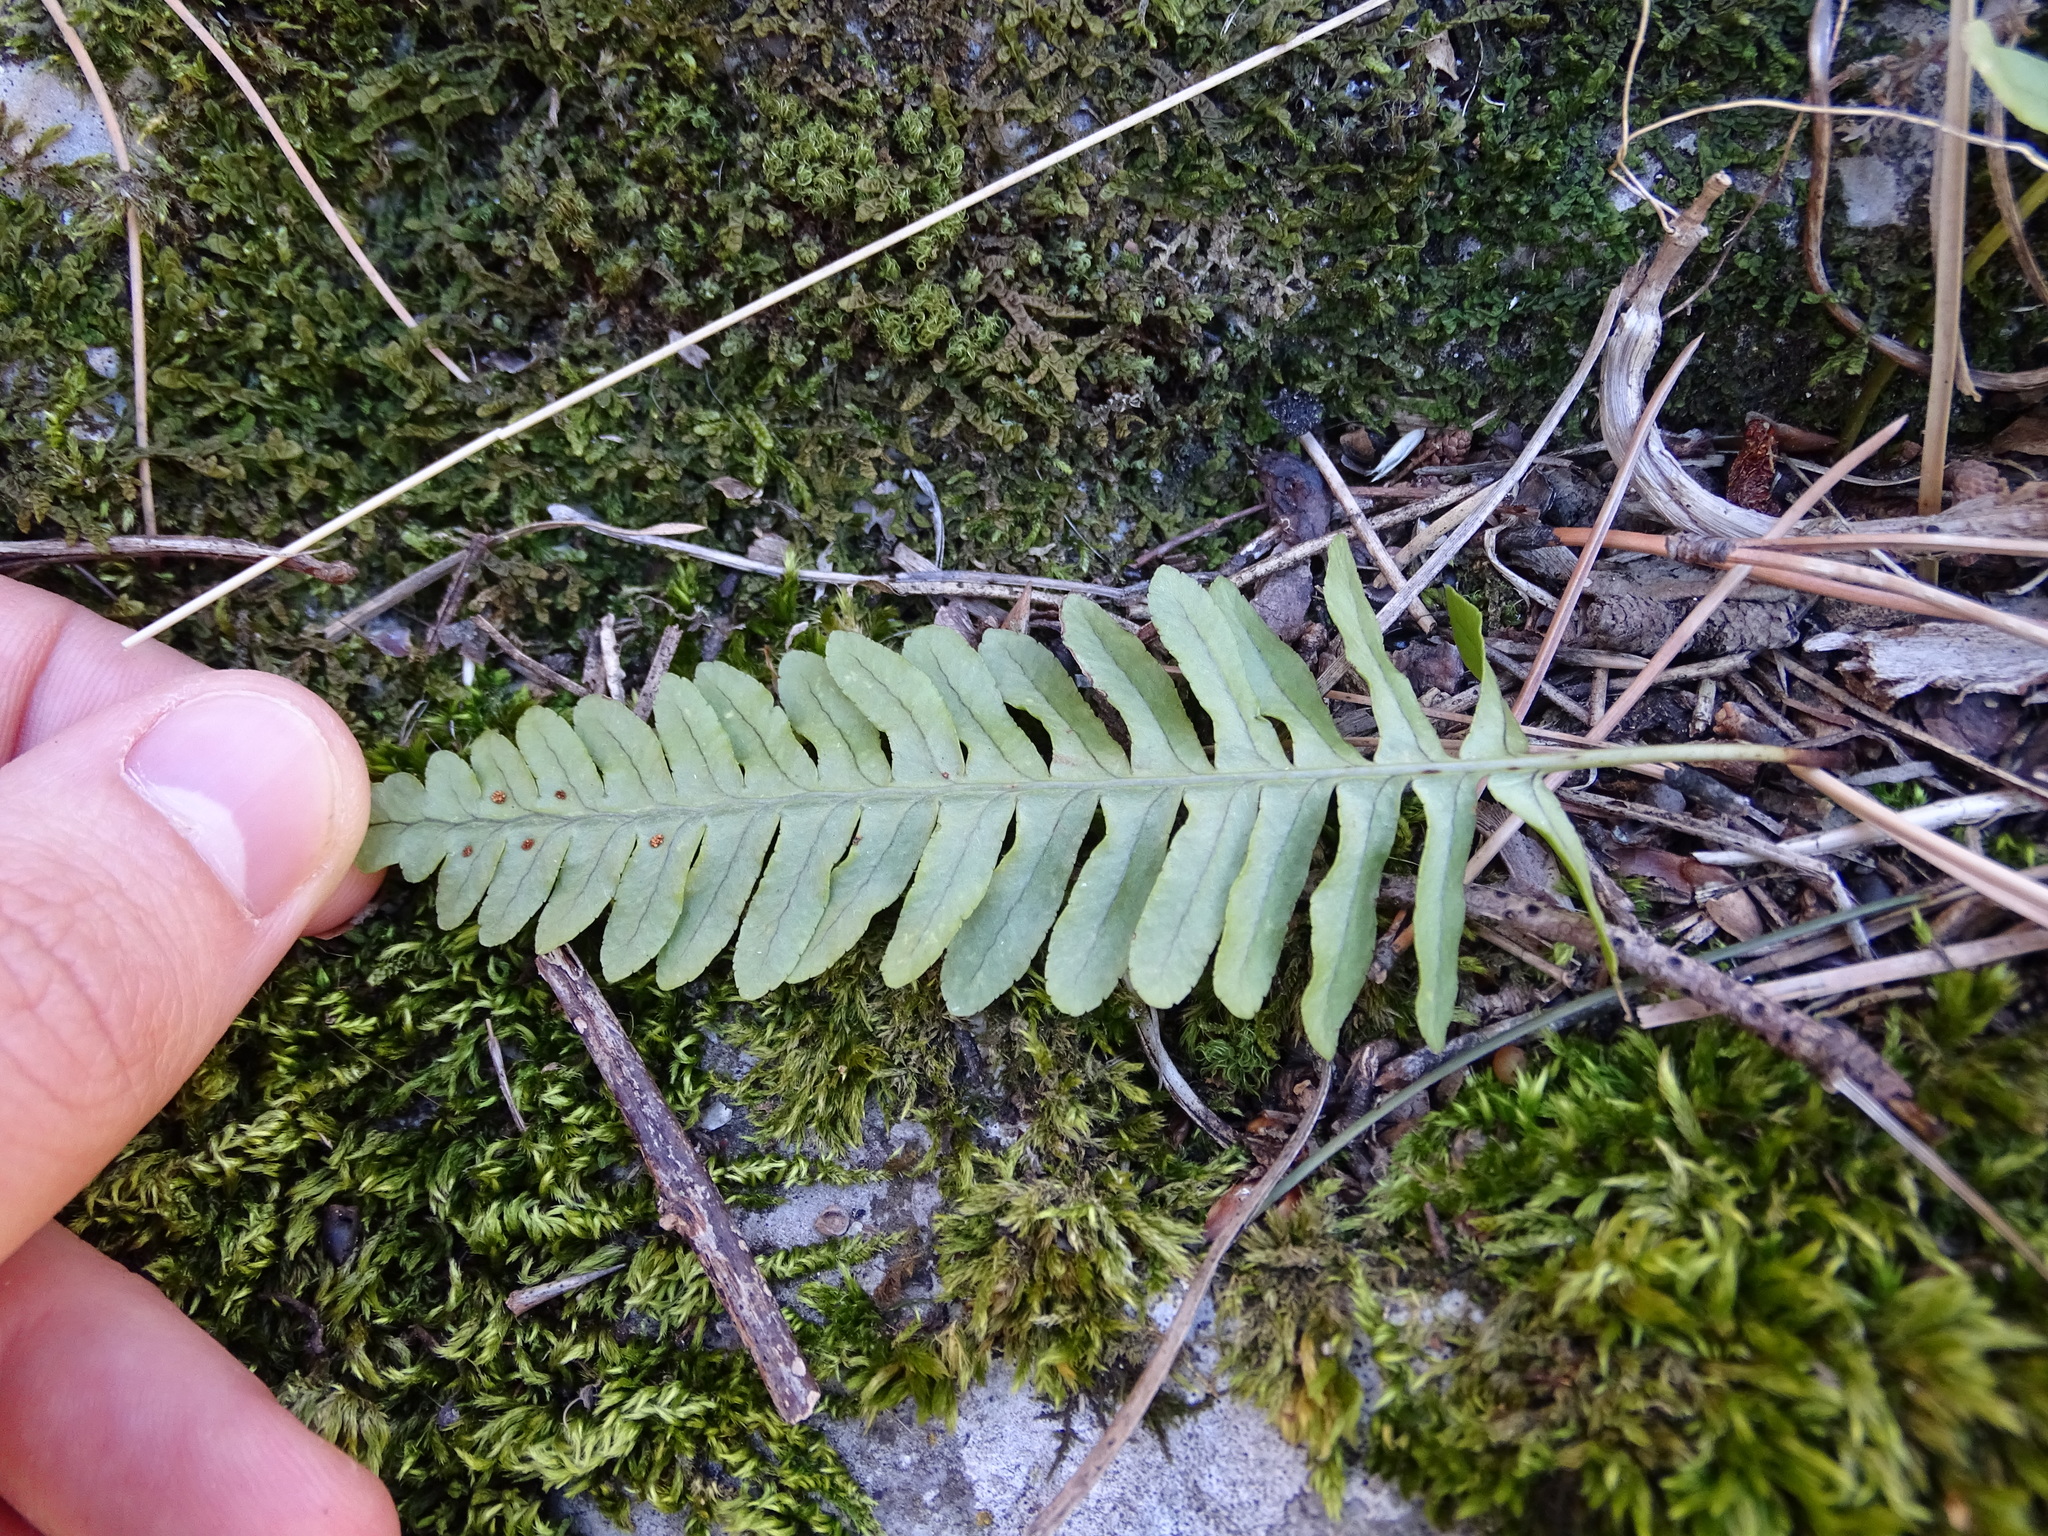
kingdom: Plantae
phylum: Tracheophyta
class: Polypodiopsida
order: Polypodiales
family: Polypodiaceae
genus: Polypodium
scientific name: Polypodium vulgare
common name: Common polypody
